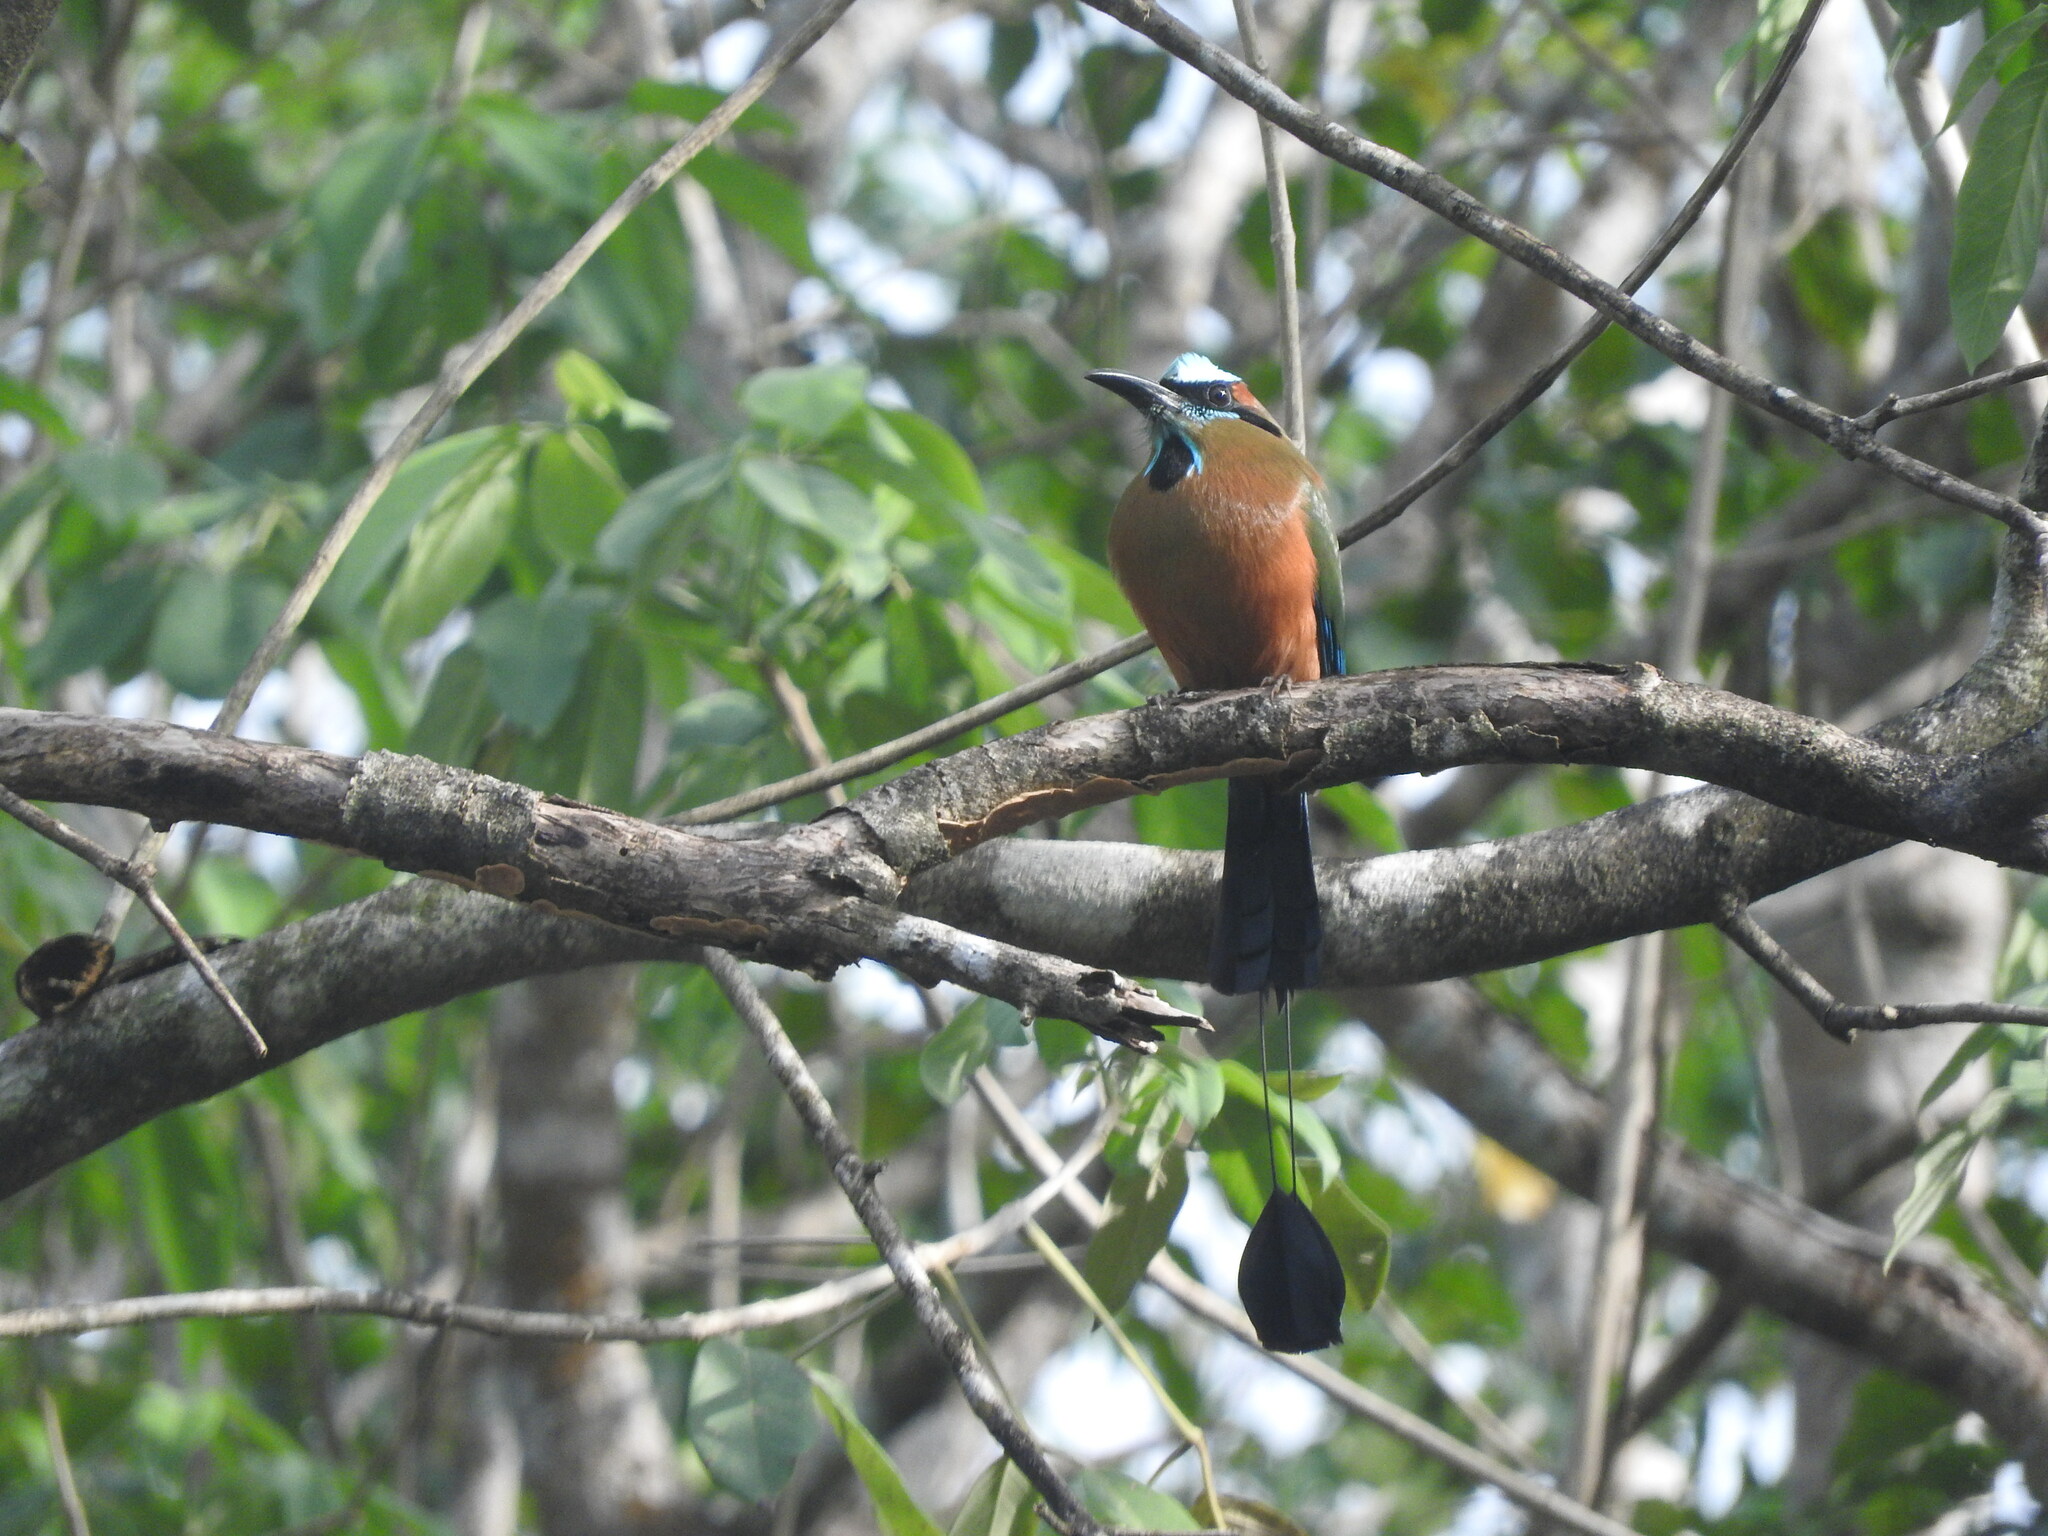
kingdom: Animalia
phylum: Chordata
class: Aves
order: Coraciiformes
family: Momotidae
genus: Eumomota
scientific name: Eumomota superciliosa
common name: Turquoise-browed motmot
